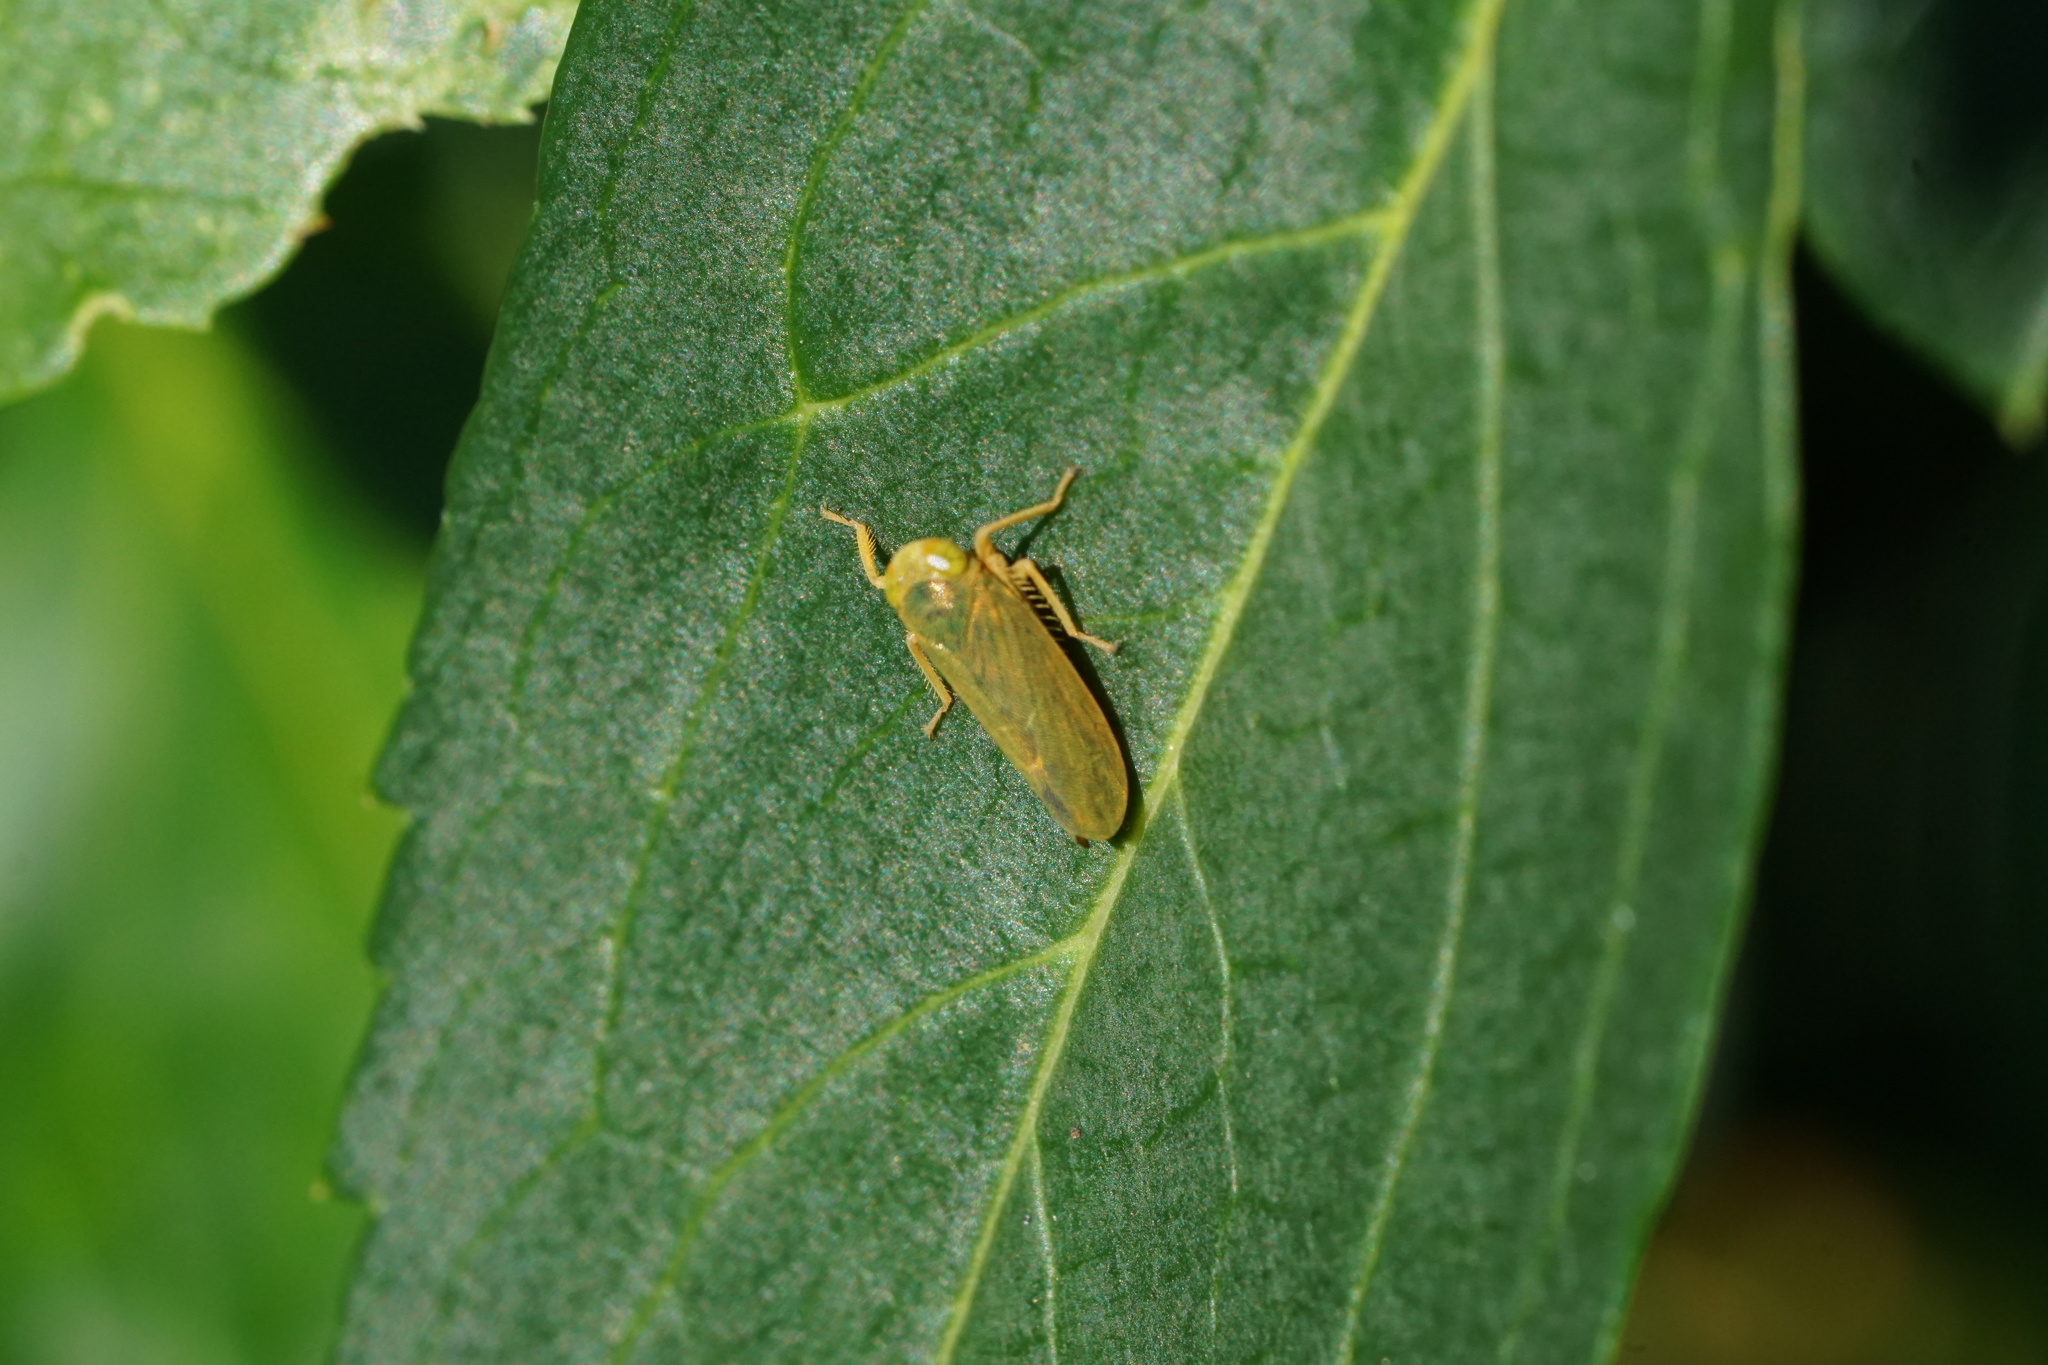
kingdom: Animalia
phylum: Arthropoda
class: Insecta
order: Hemiptera
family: Cicadellidae
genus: Jikradia
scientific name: Jikradia olitoria
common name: Coppery leafhopper
